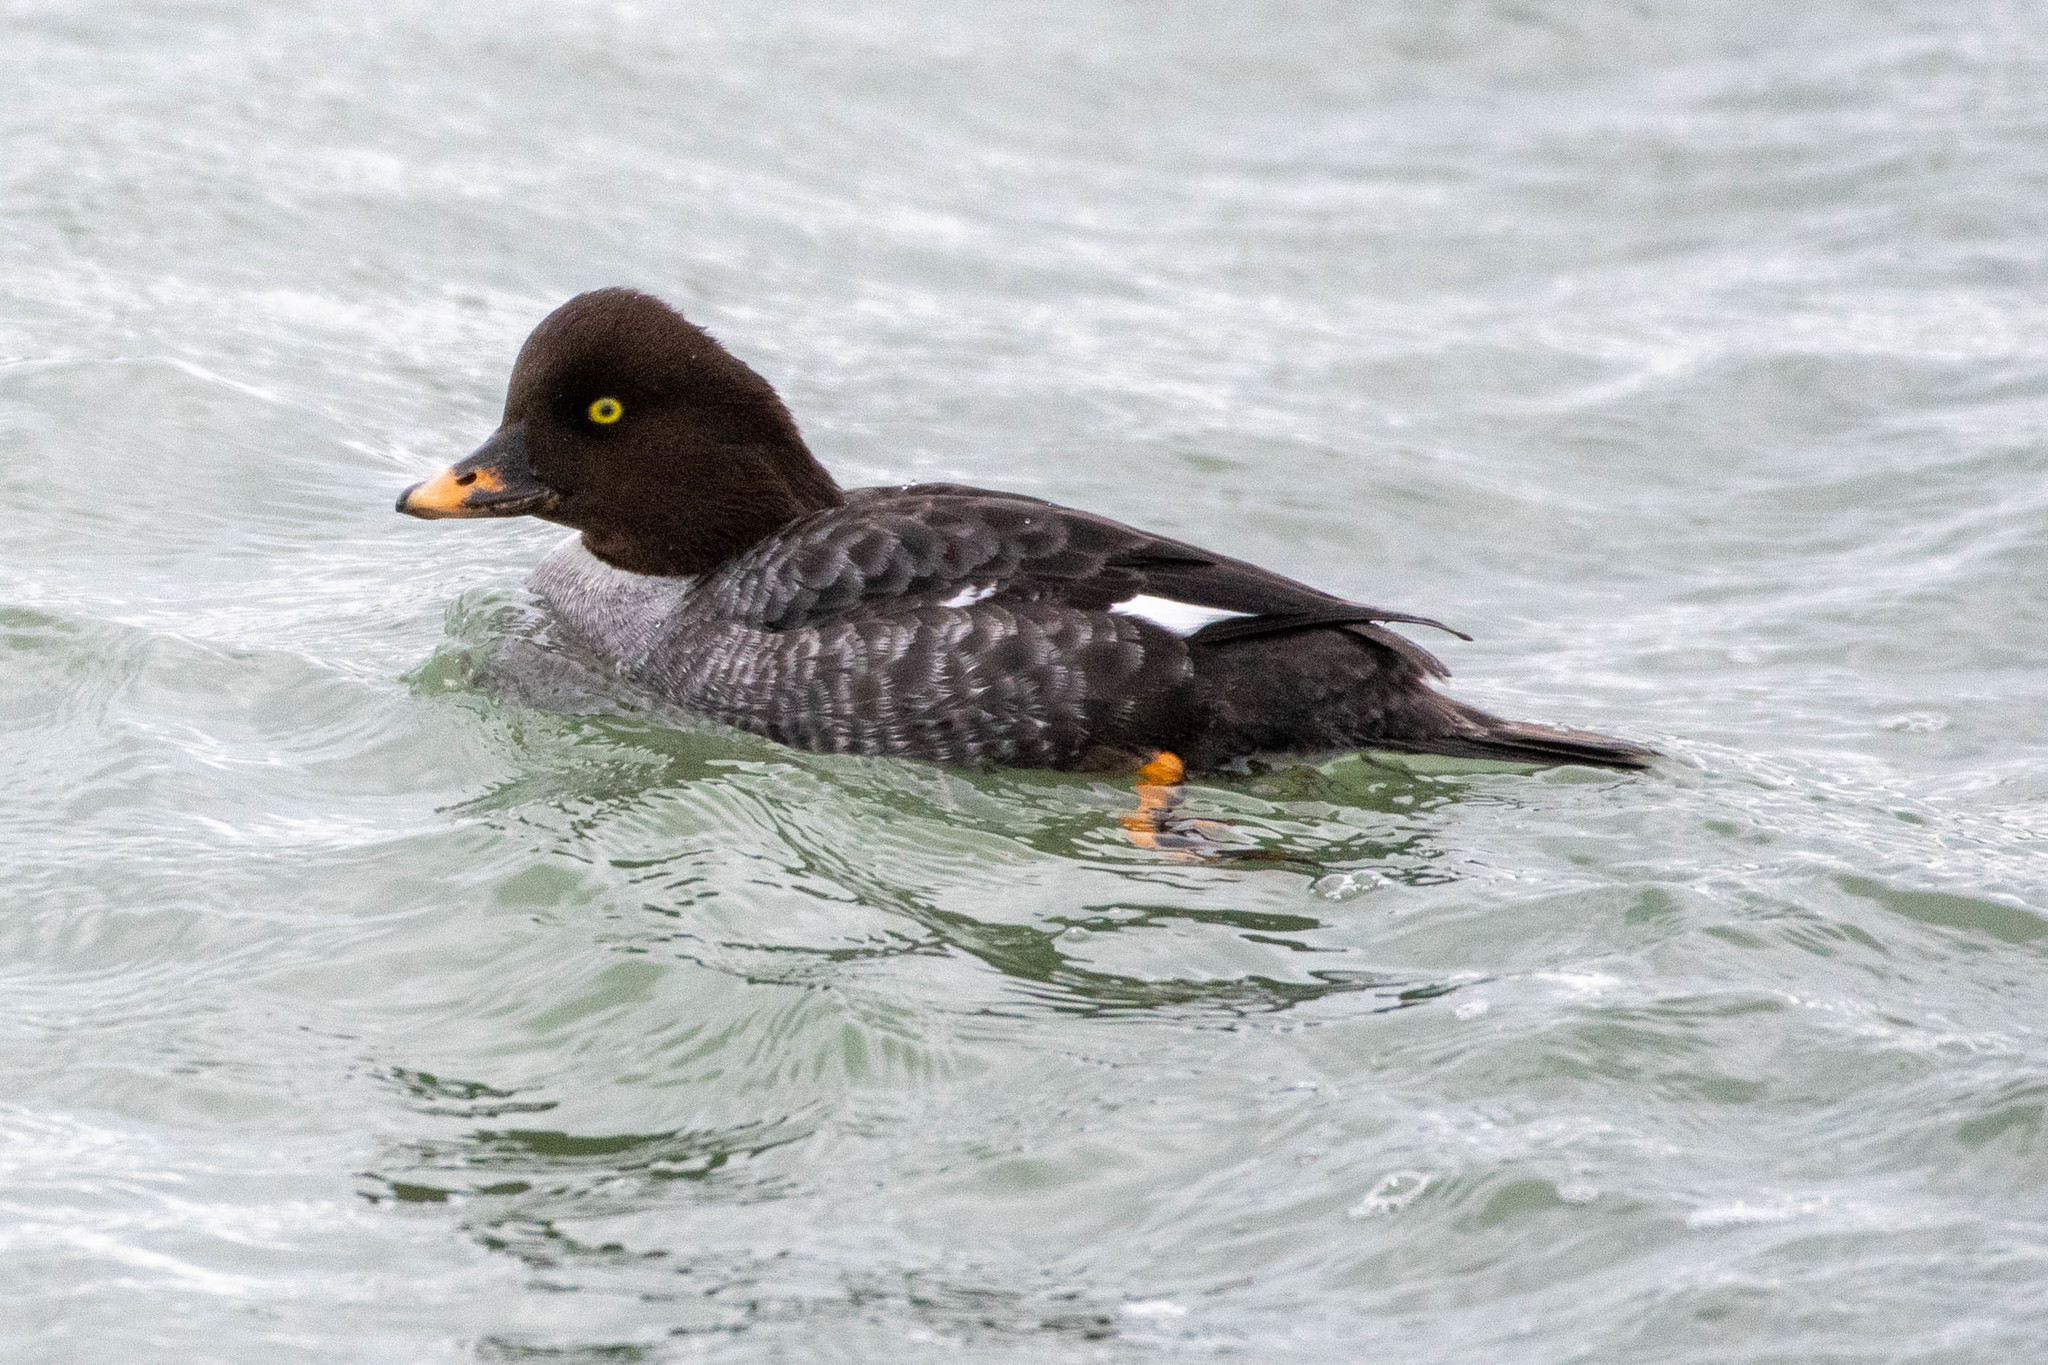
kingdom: Animalia
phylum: Chordata
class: Aves
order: Anseriformes
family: Anatidae
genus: Bucephala
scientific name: Bucephala islandica
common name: Barrow's goldeneye
